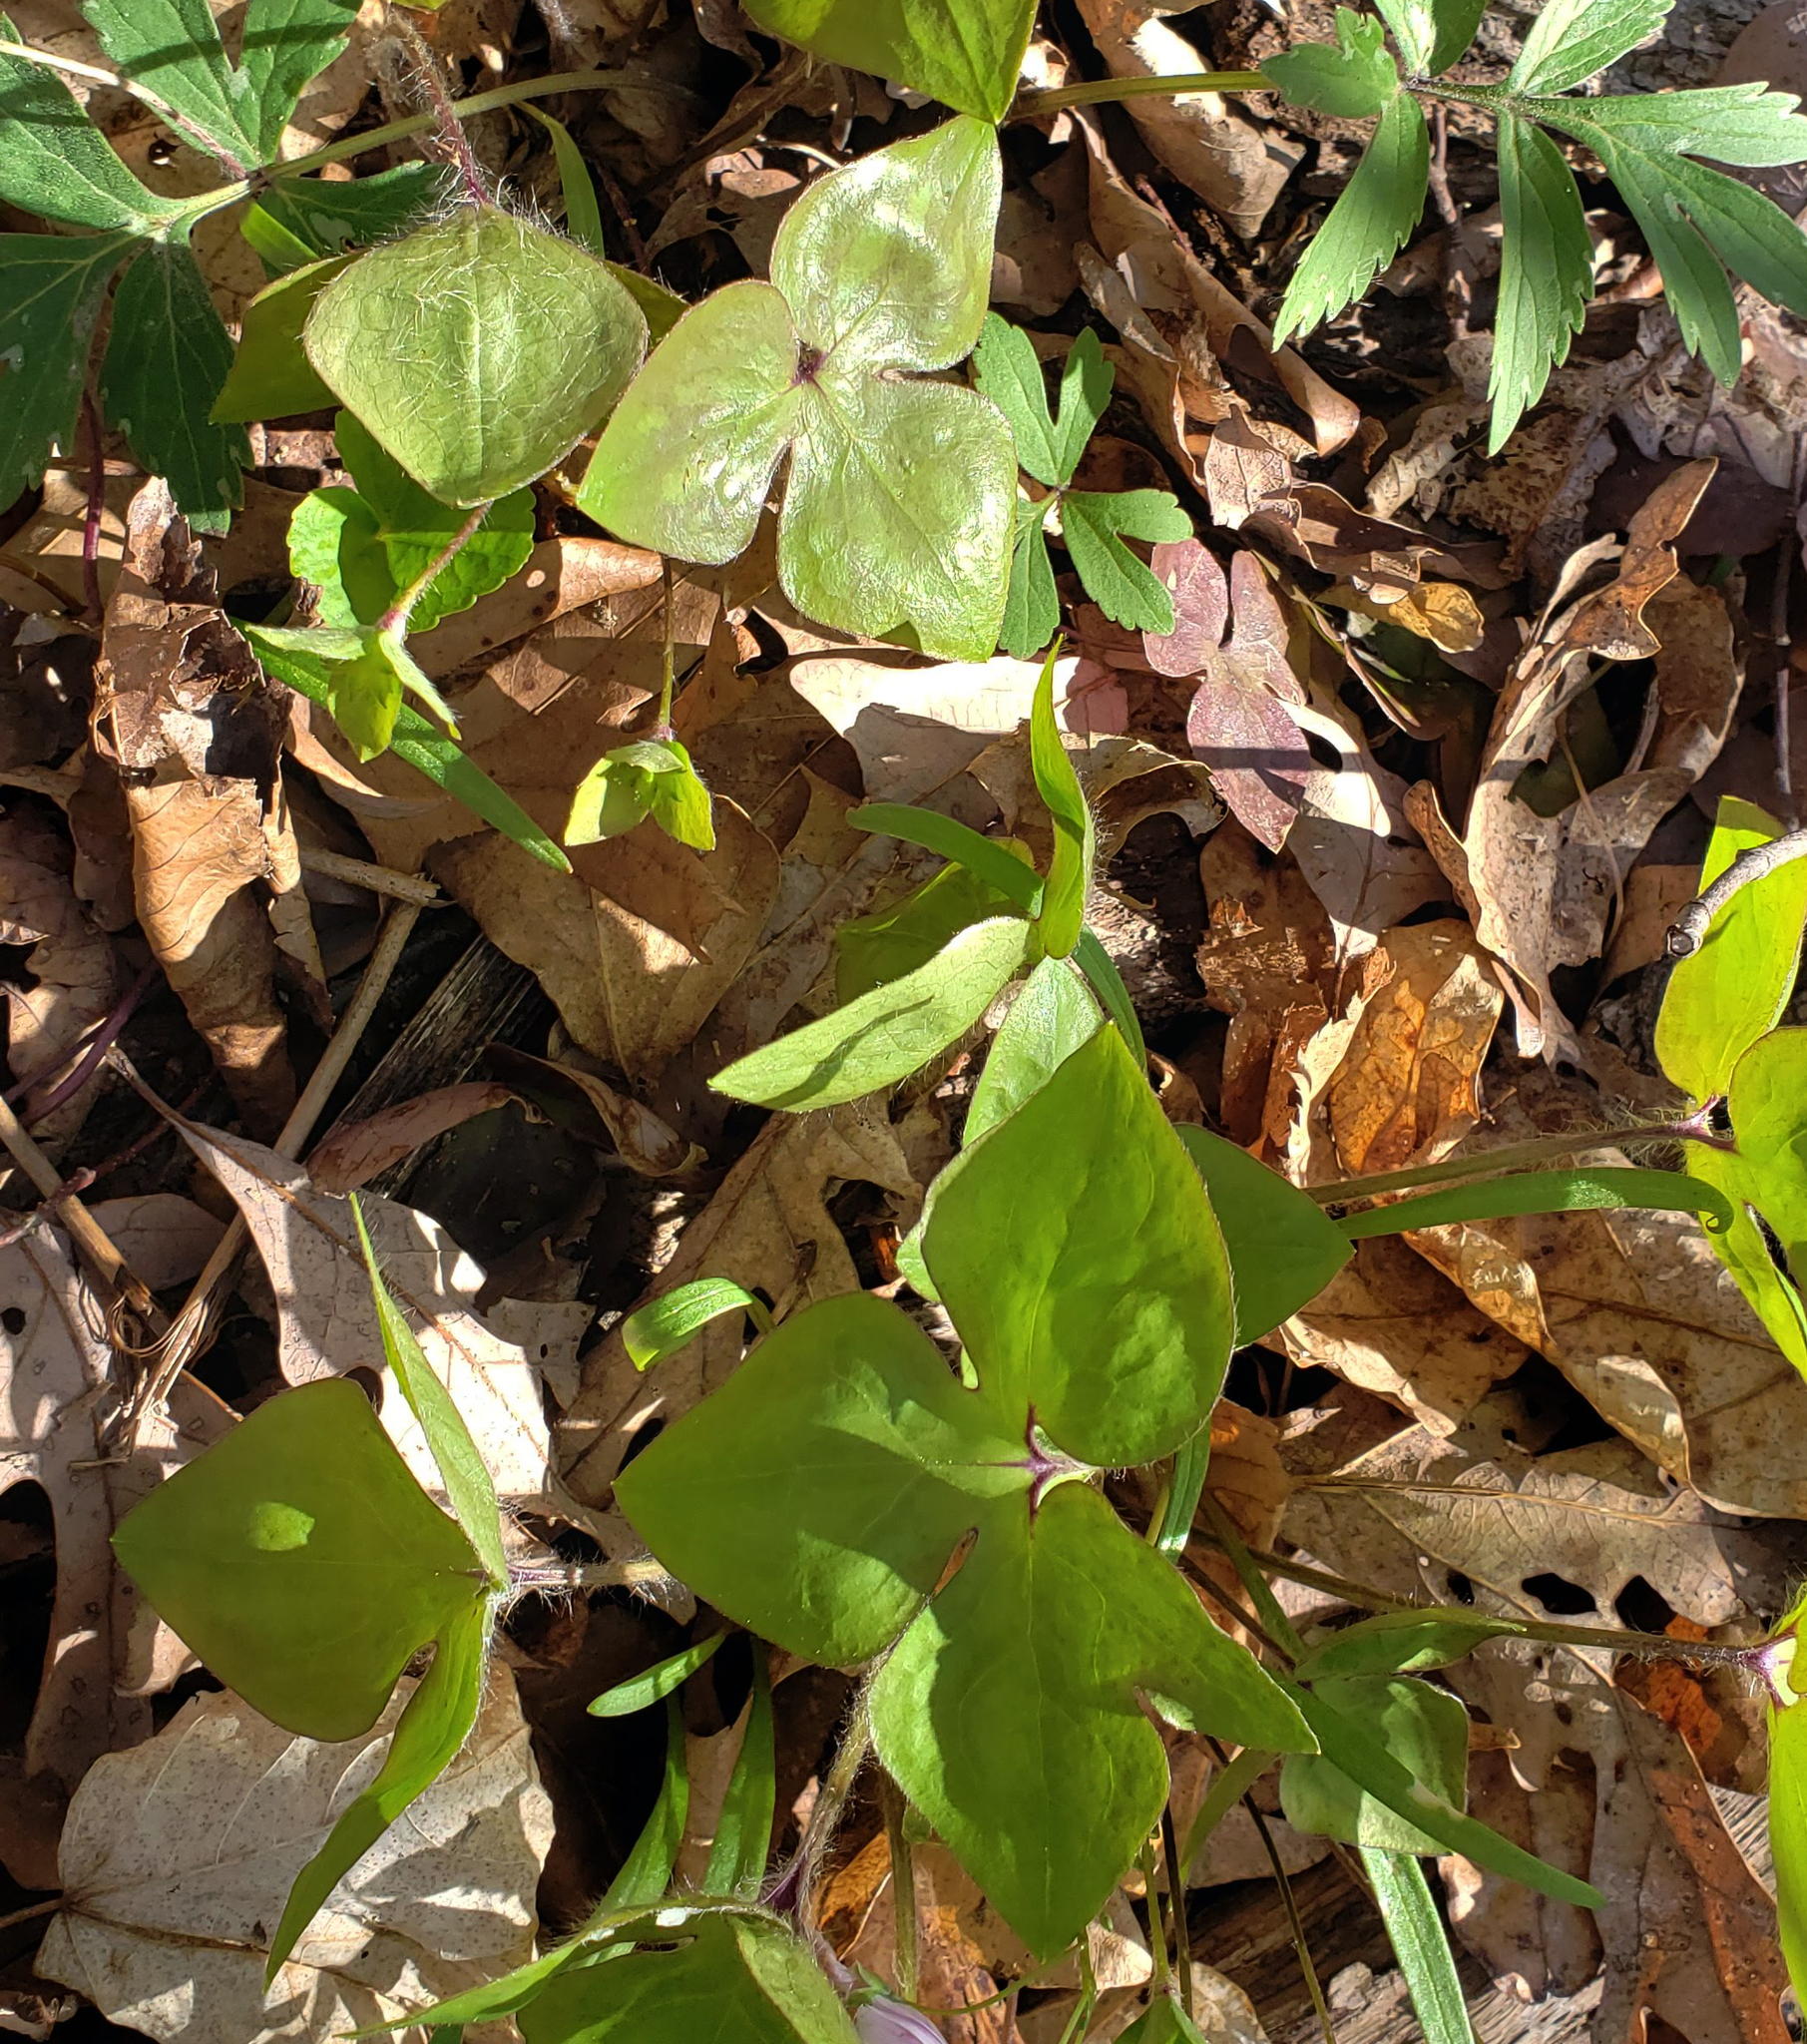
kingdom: Plantae
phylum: Tracheophyta
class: Magnoliopsida
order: Ranunculales
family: Ranunculaceae
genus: Hepatica
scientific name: Hepatica acutiloba
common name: Sharp-lobed hepatica
